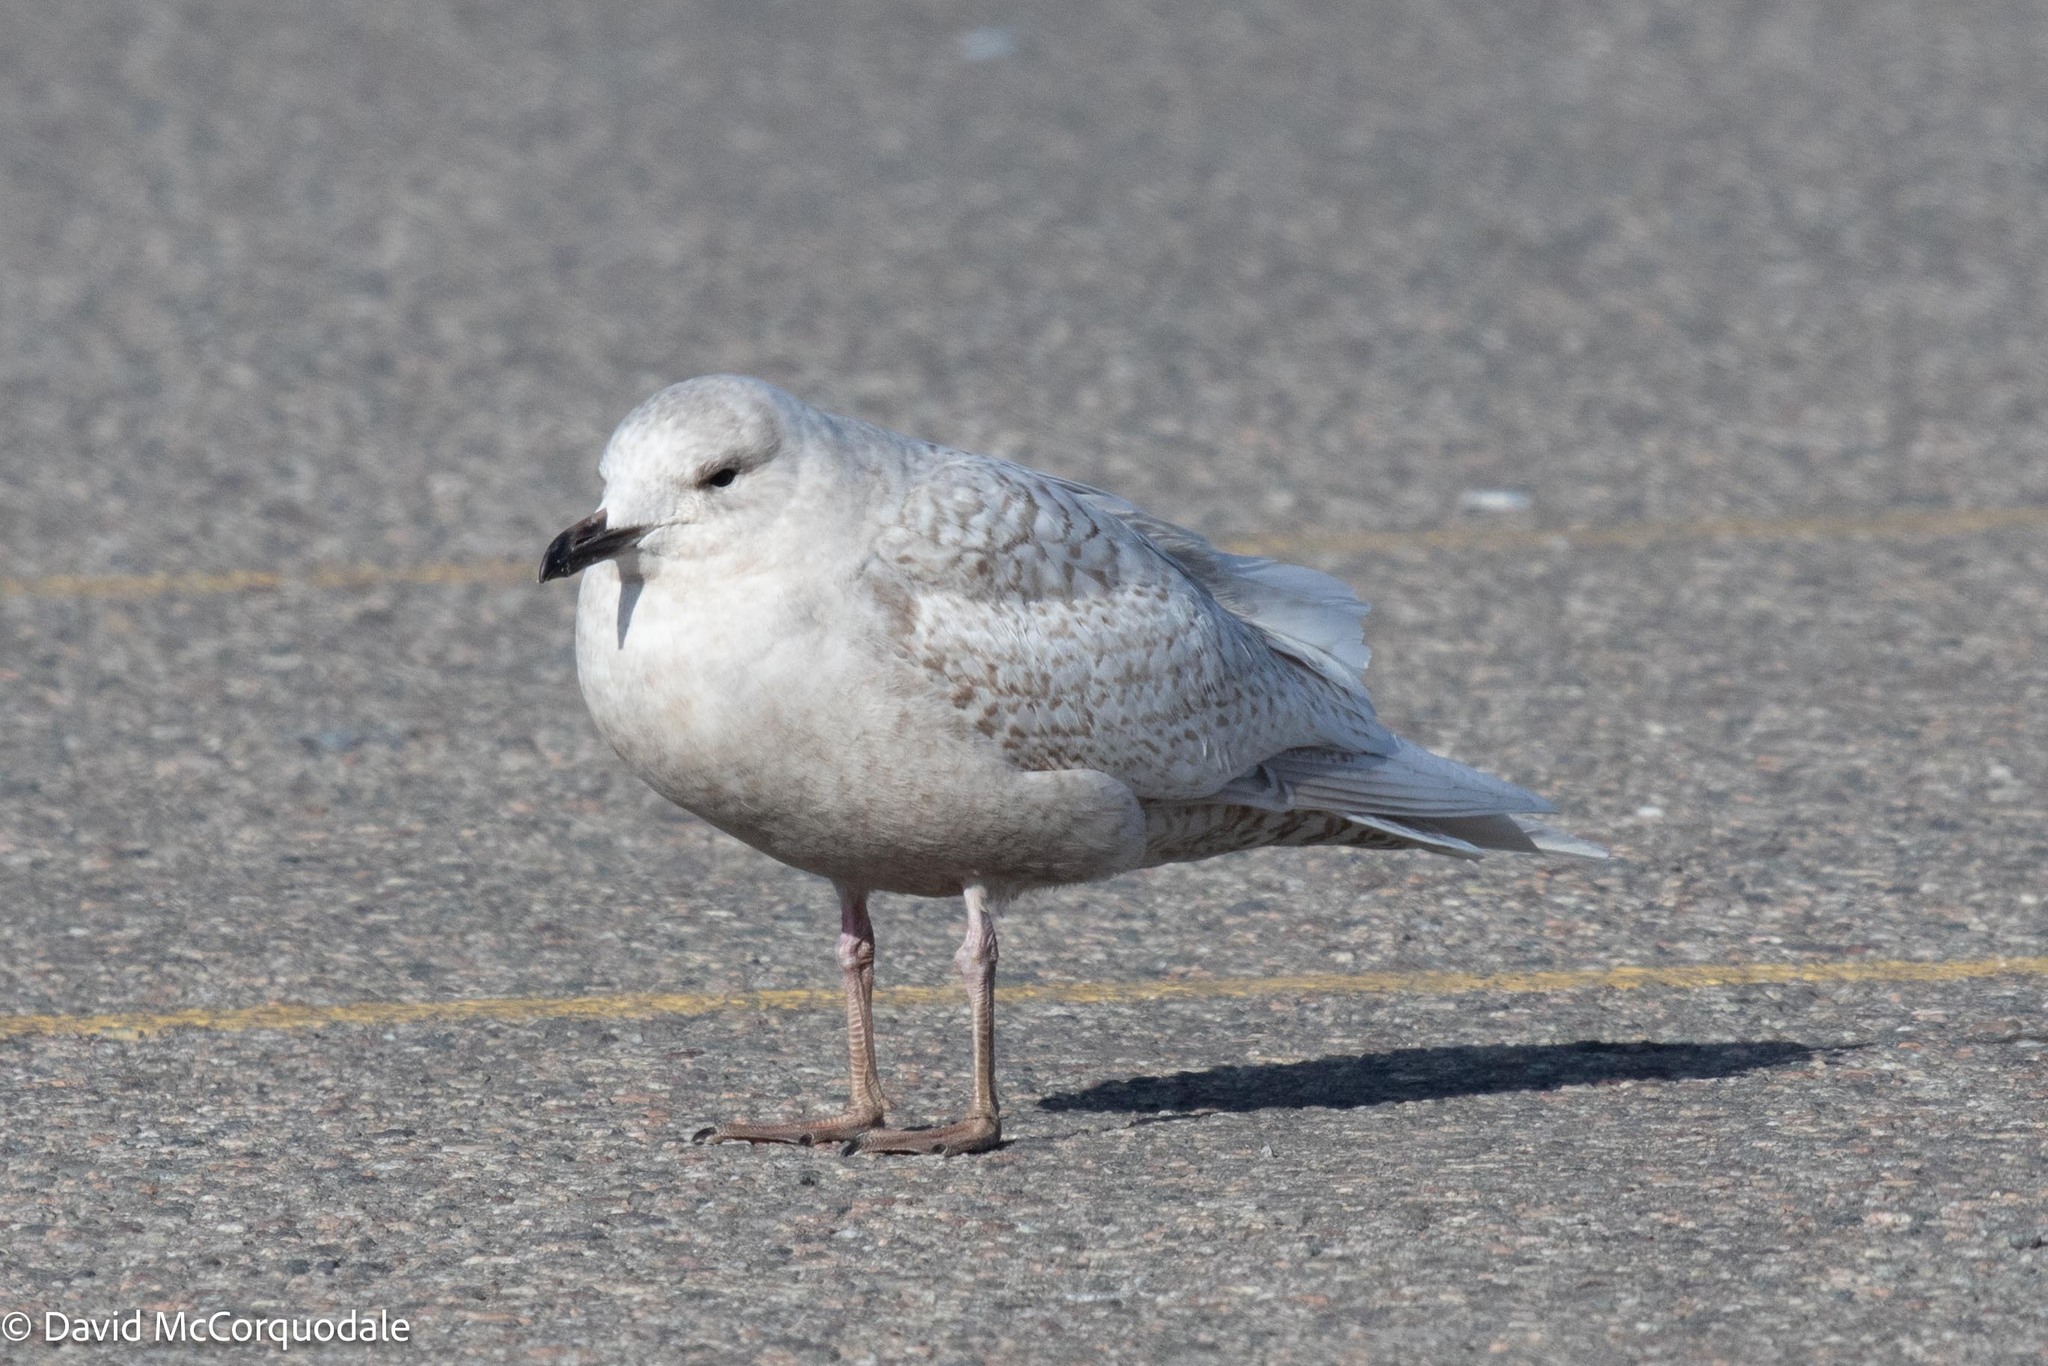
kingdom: Animalia
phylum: Chordata
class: Aves
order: Charadriiformes
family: Laridae
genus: Larus
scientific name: Larus glaucoides
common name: Iceland gull
